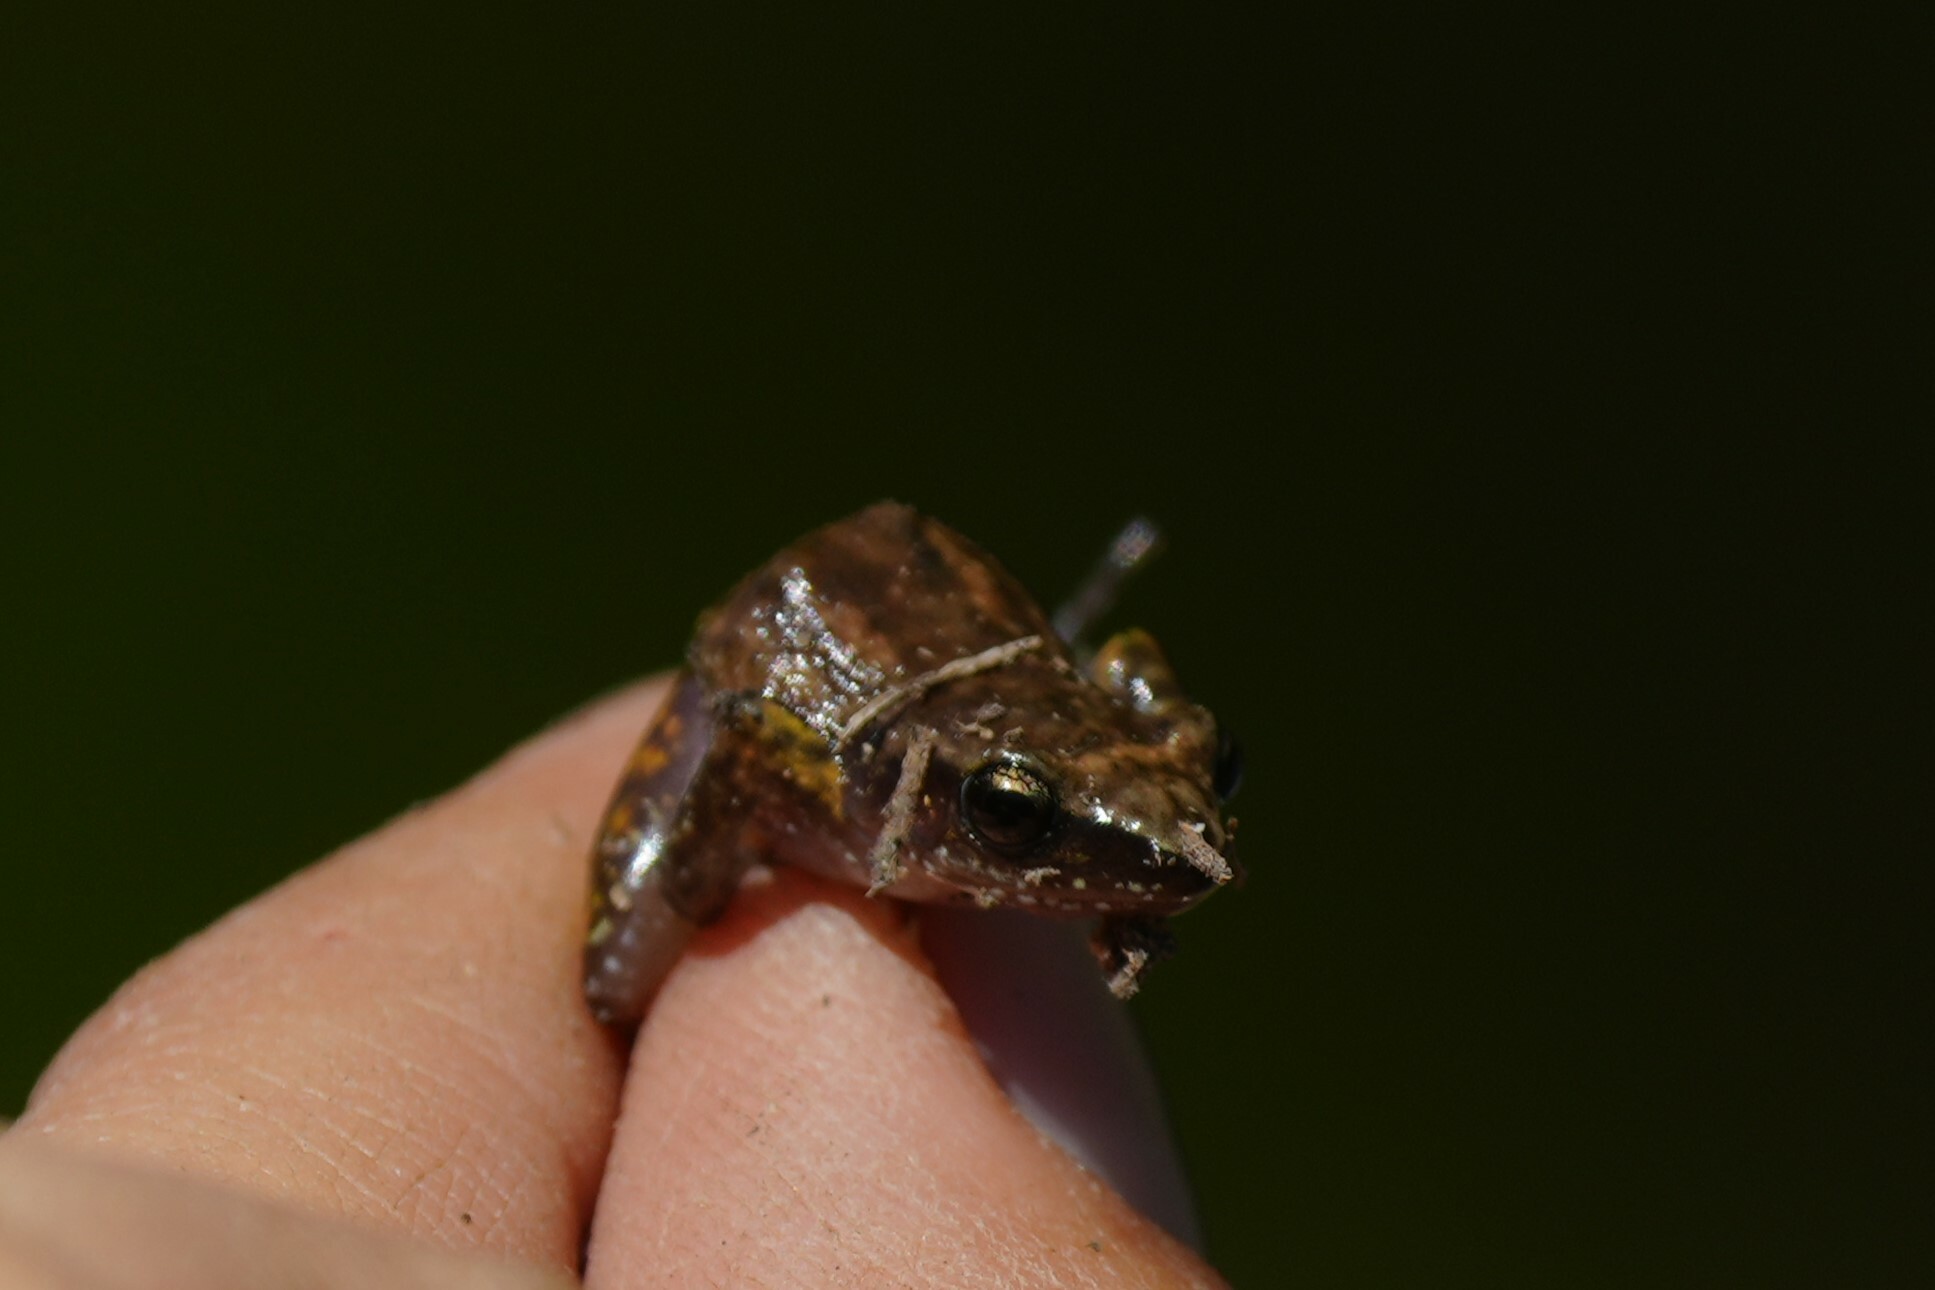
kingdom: Animalia
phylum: Chordata
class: Amphibia
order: Anura
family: Eleutherodactylidae
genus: Eleutherodactylus
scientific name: Eleutherodactylus campi
